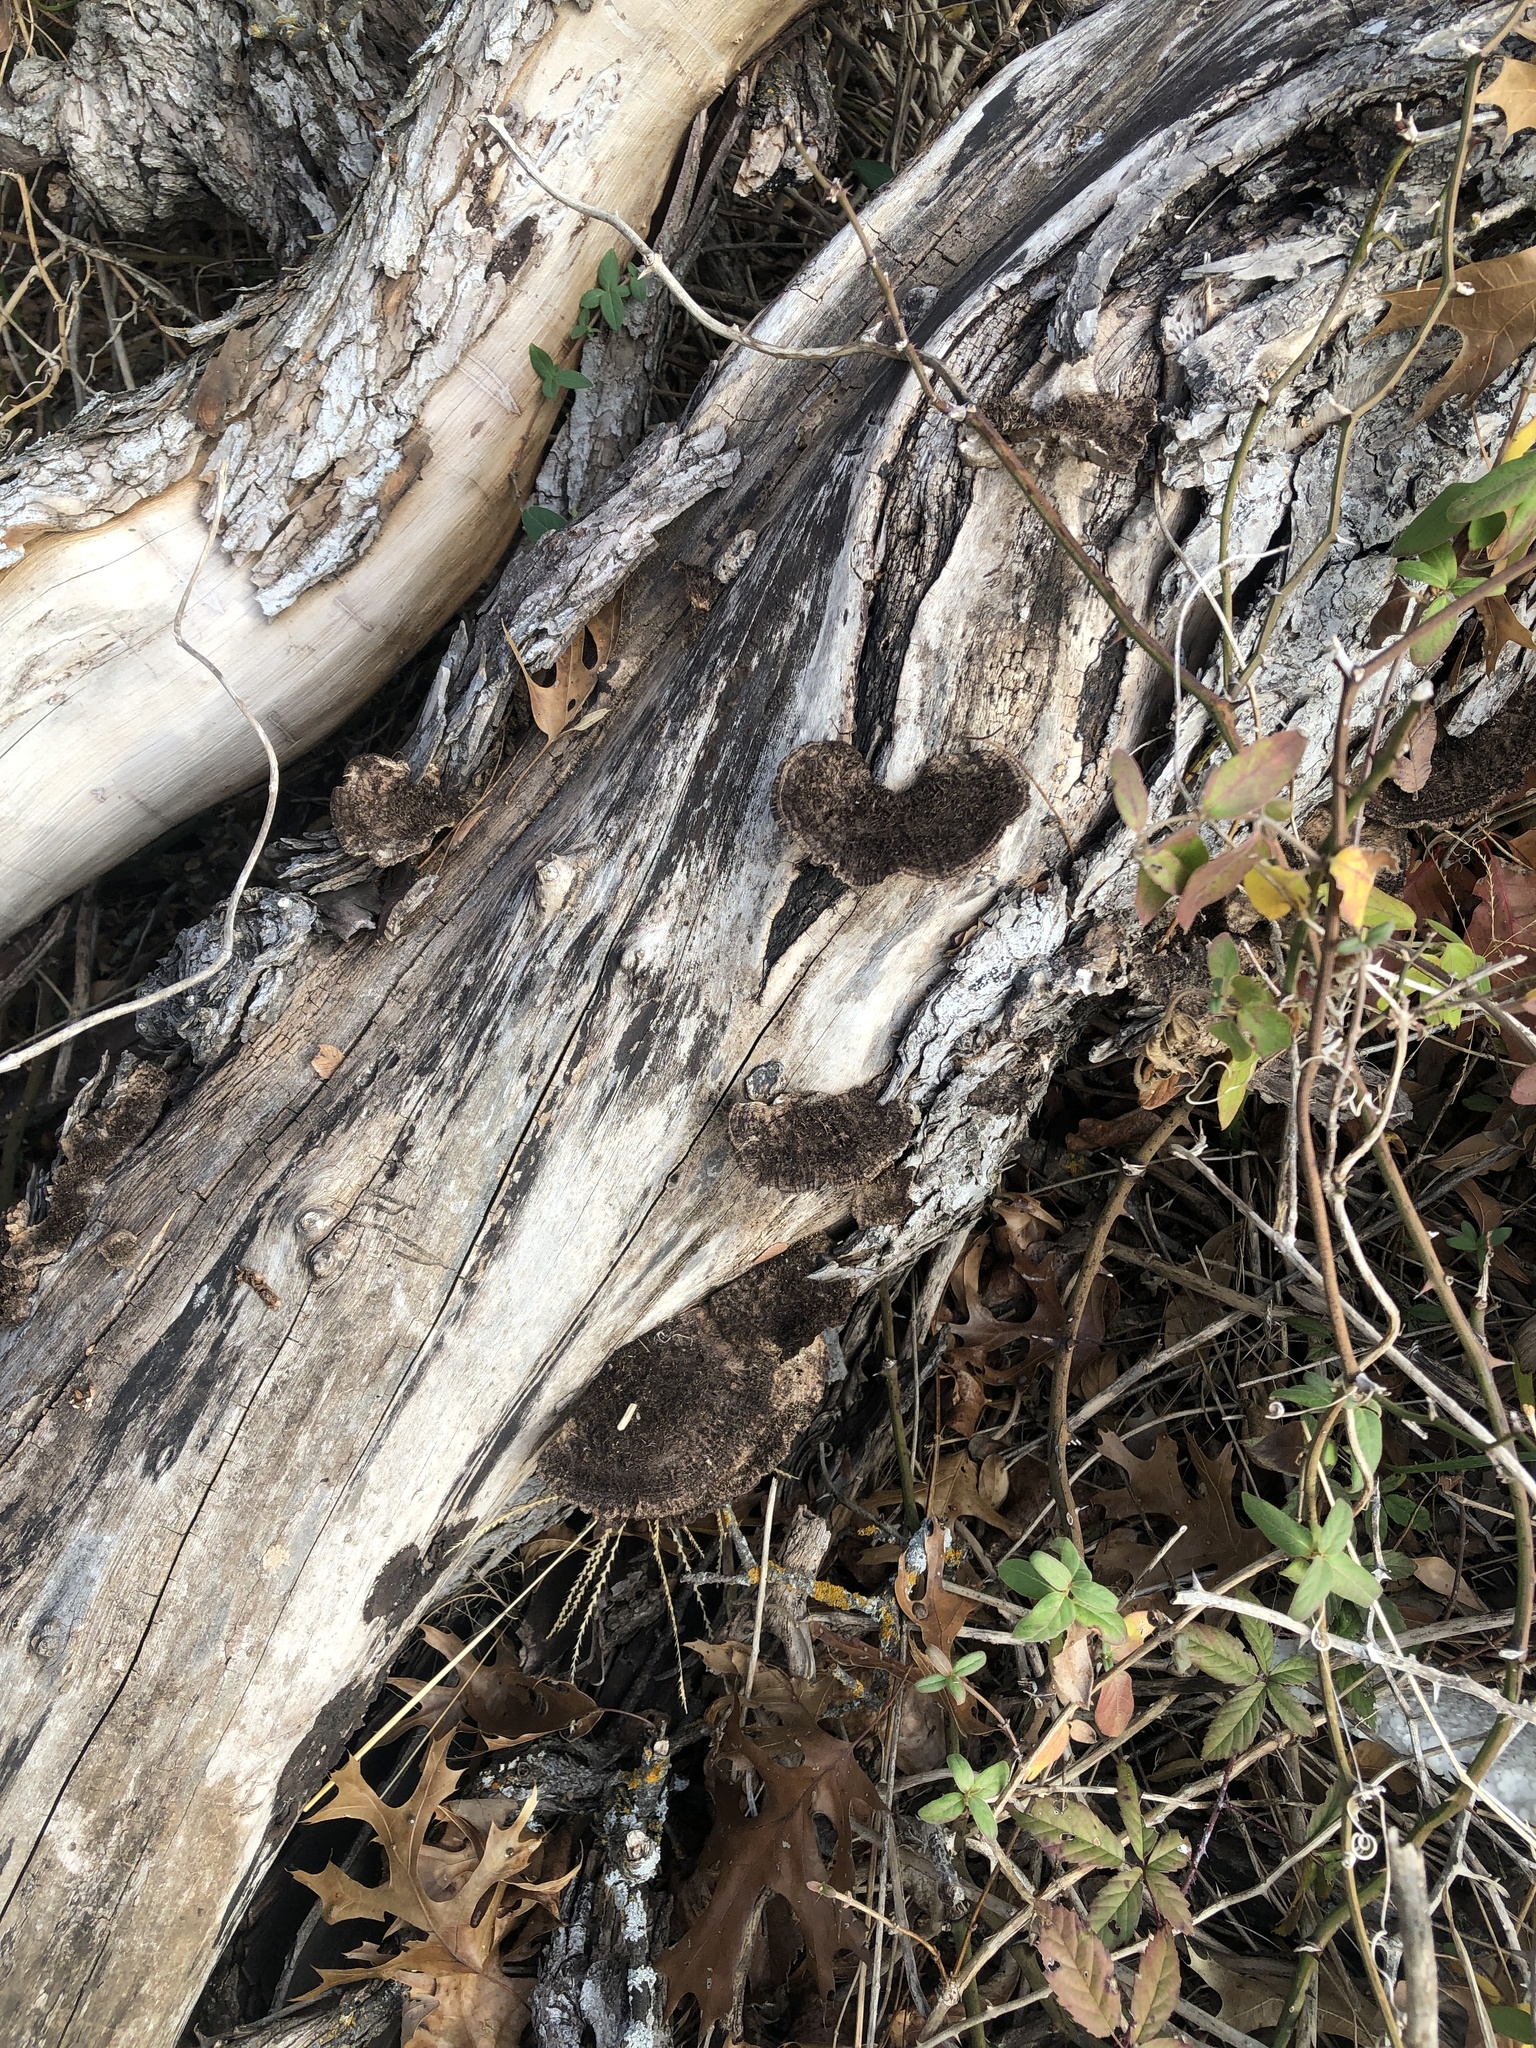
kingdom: Fungi
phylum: Basidiomycota
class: Agaricomycetes
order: Polyporales
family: Cerrenaceae
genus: Cerrena
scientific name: Cerrena hydnoides
